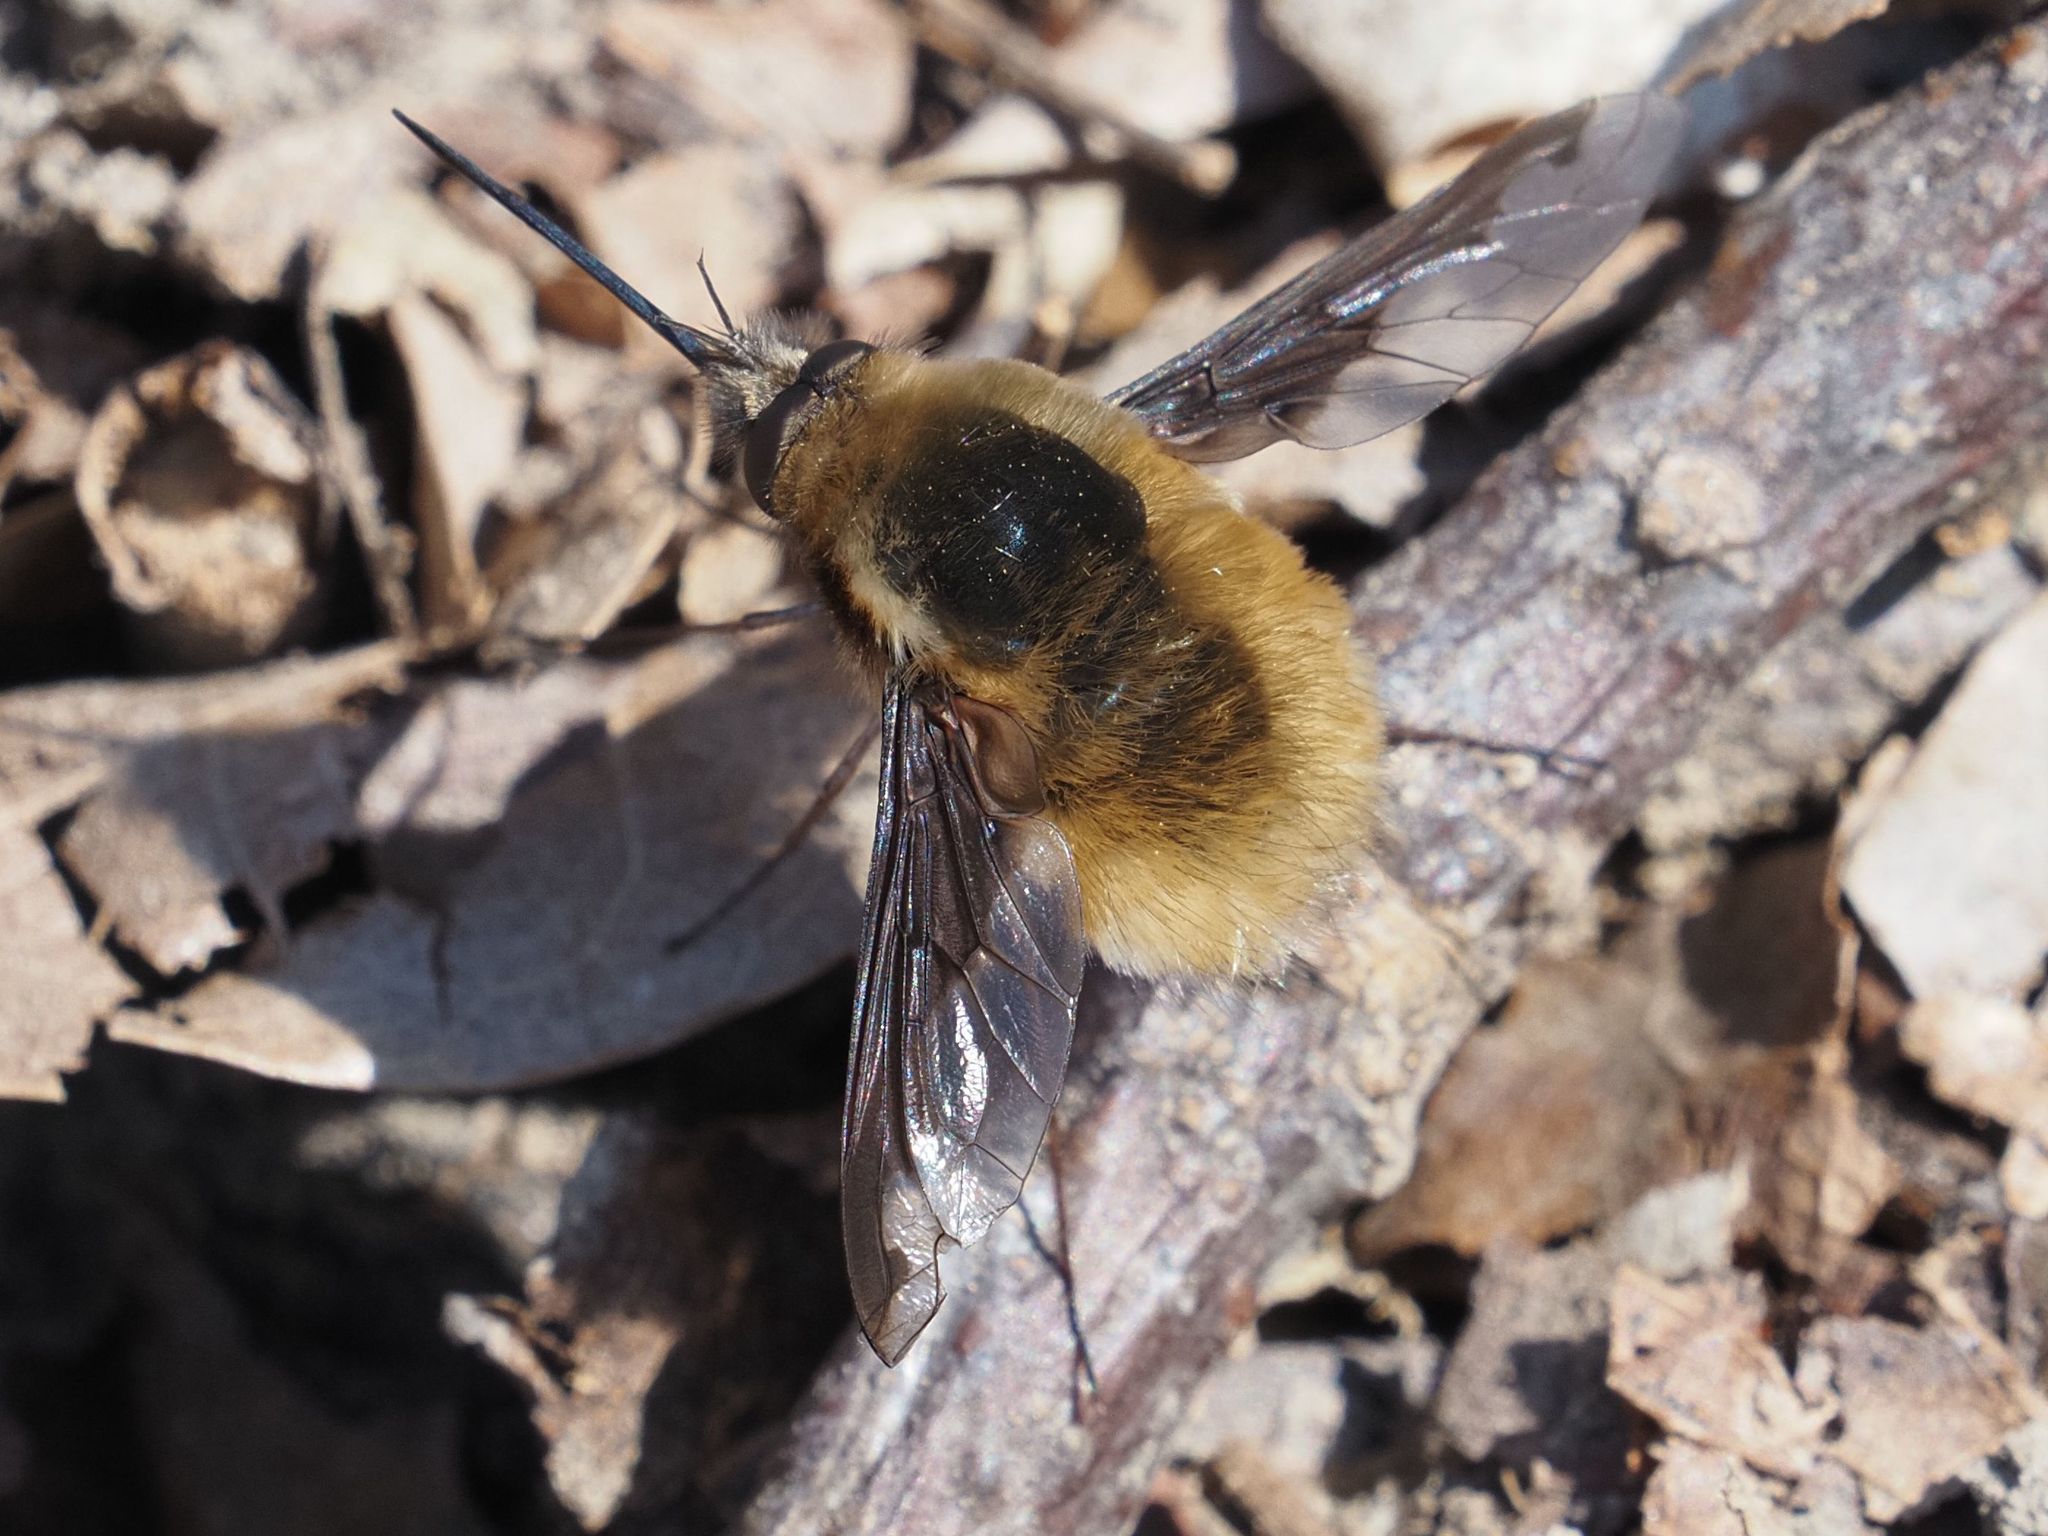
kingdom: Animalia
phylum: Arthropoda
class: Insecta
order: Diptera
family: Bombyliidae
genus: Bombylius
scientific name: Bombylius major
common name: Bee fly
